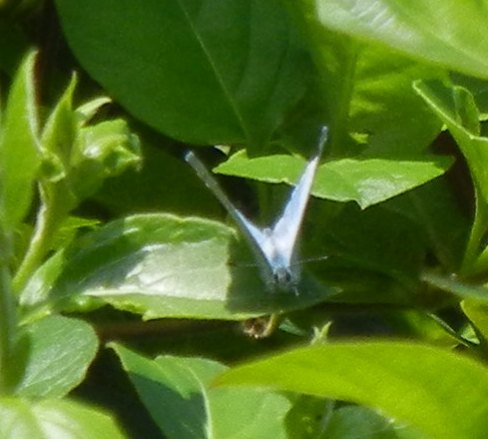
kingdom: Animalia
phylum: Arthropoda
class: Insecta
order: Lepidoptera
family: Lycaenidae
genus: Celastrina
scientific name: Celastrina argiolus
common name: Holly blue
